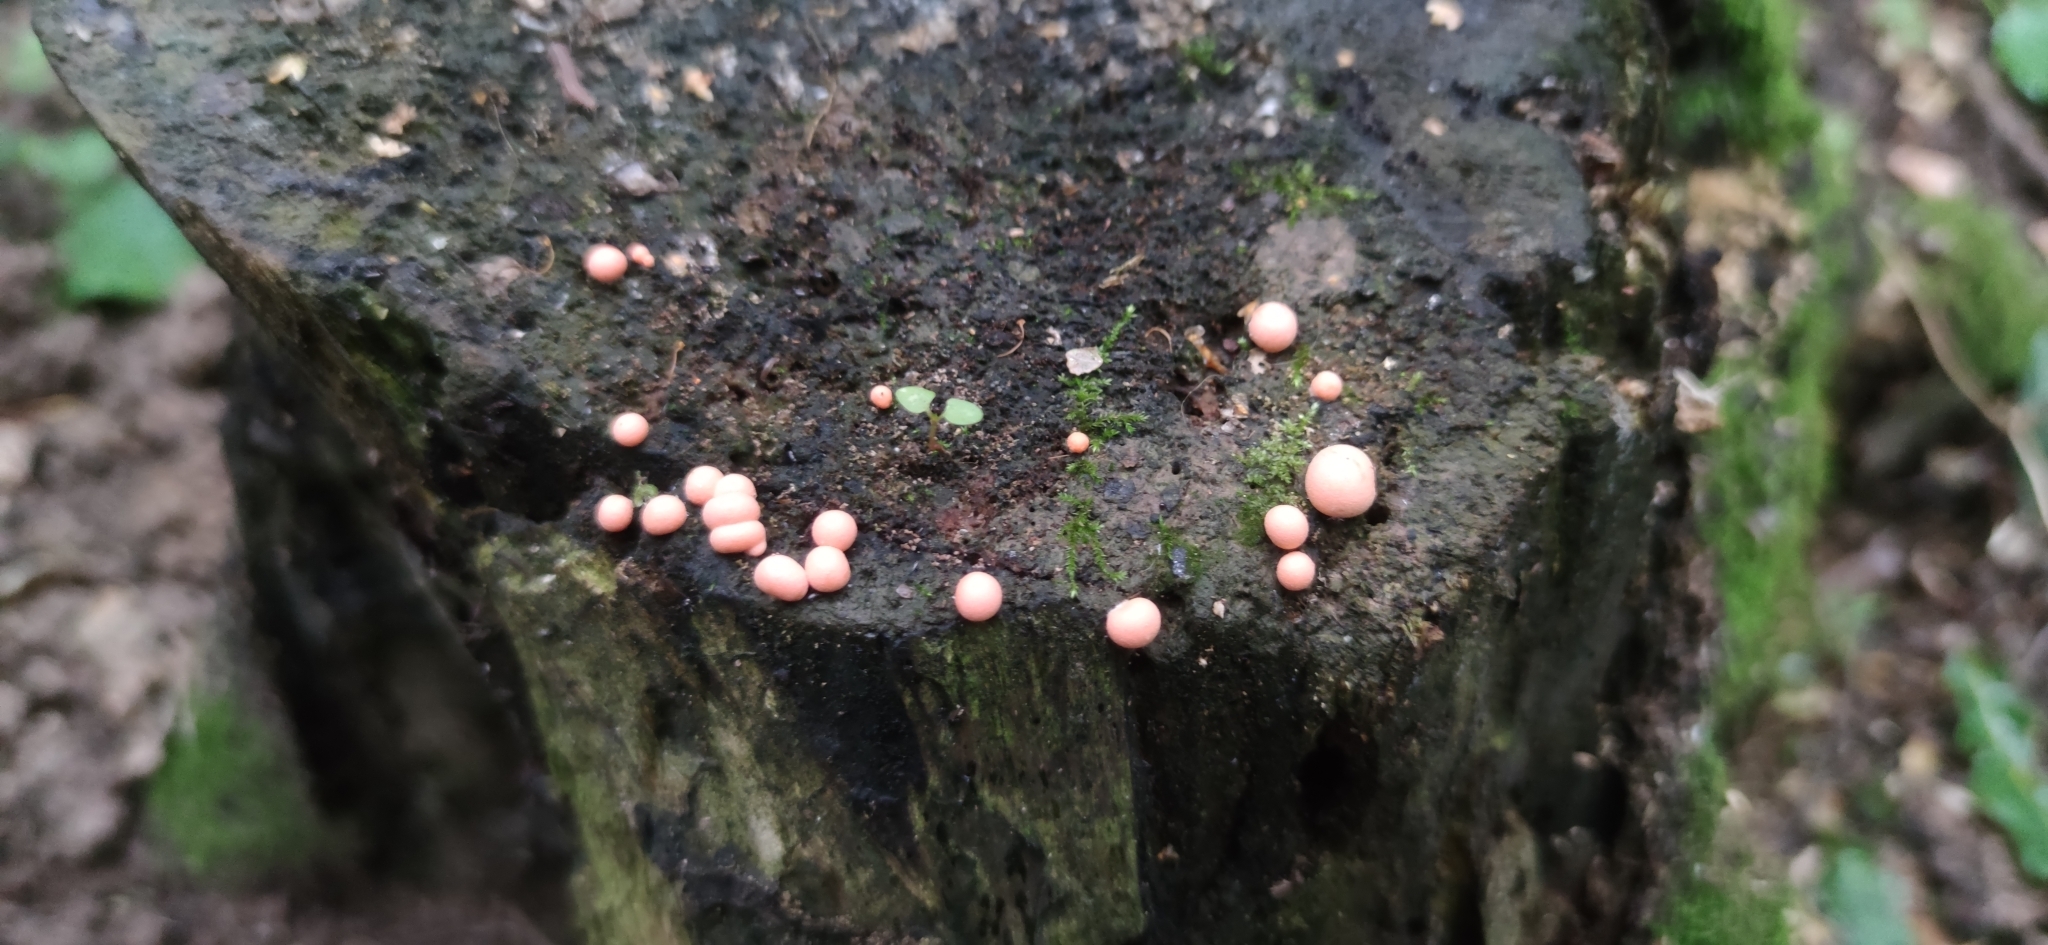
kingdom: Protozoa
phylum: Mycetozoa
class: Myxomycetes
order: Cribrariales
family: Tubiferaceae
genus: Lycogala
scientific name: Lycogala epidendrum
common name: Wolf's milk
